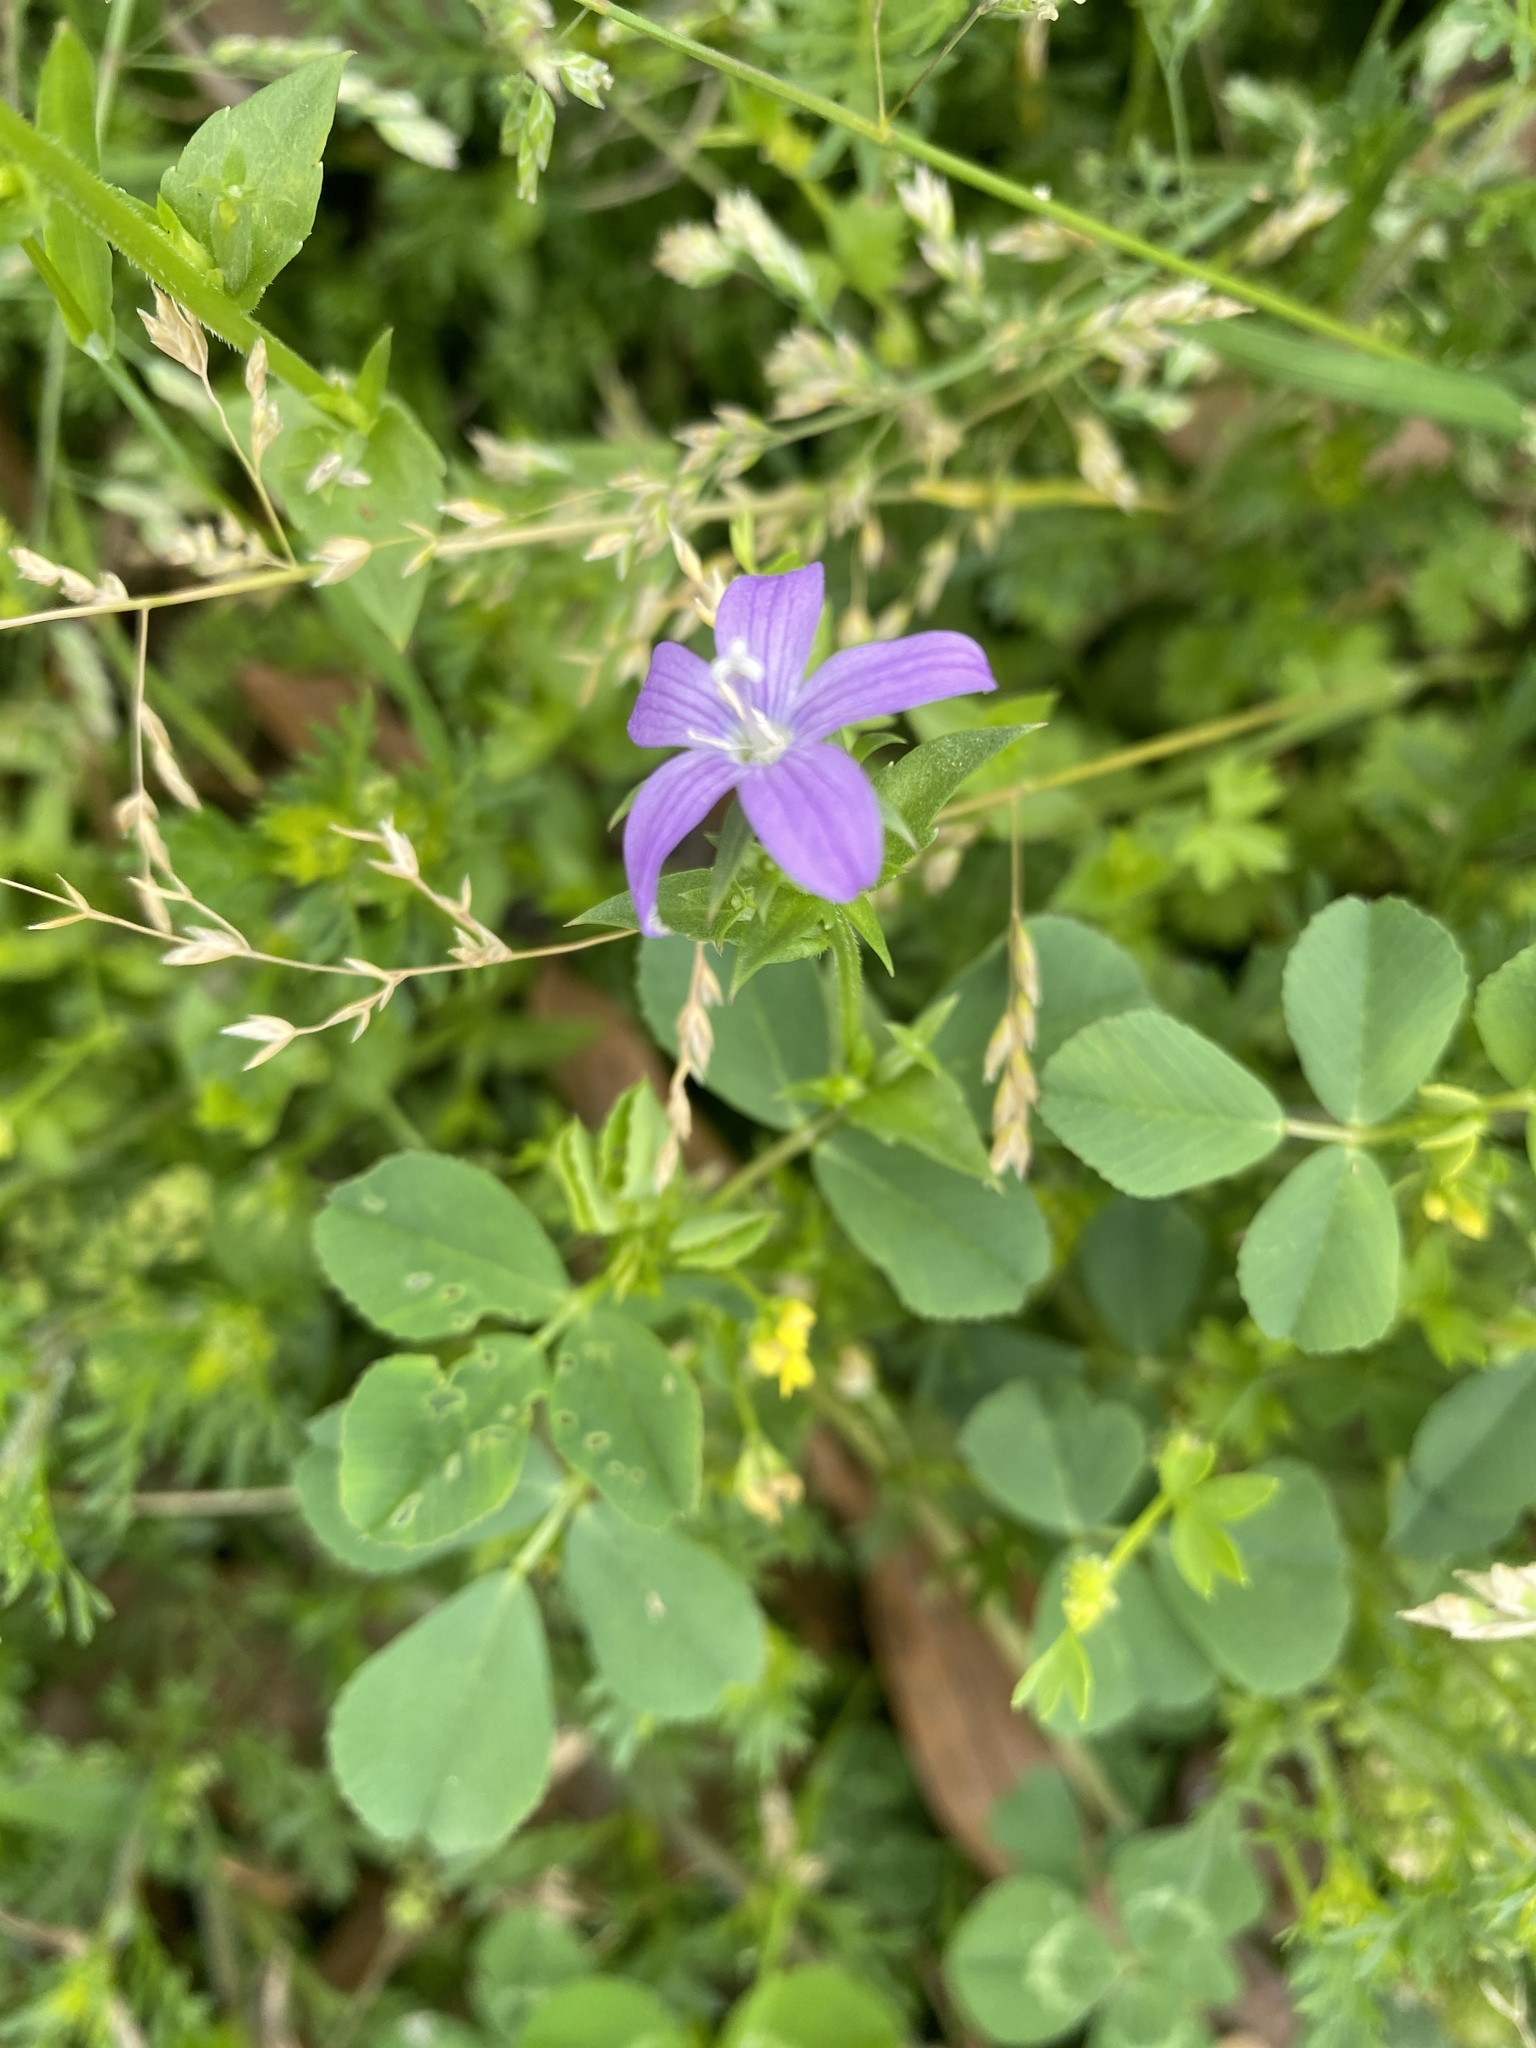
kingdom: Plantae
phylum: Tracheophyta
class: Magnoliopsida
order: Asterales
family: Campanulaceae
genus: Triodanis
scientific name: Triodanis biflora
